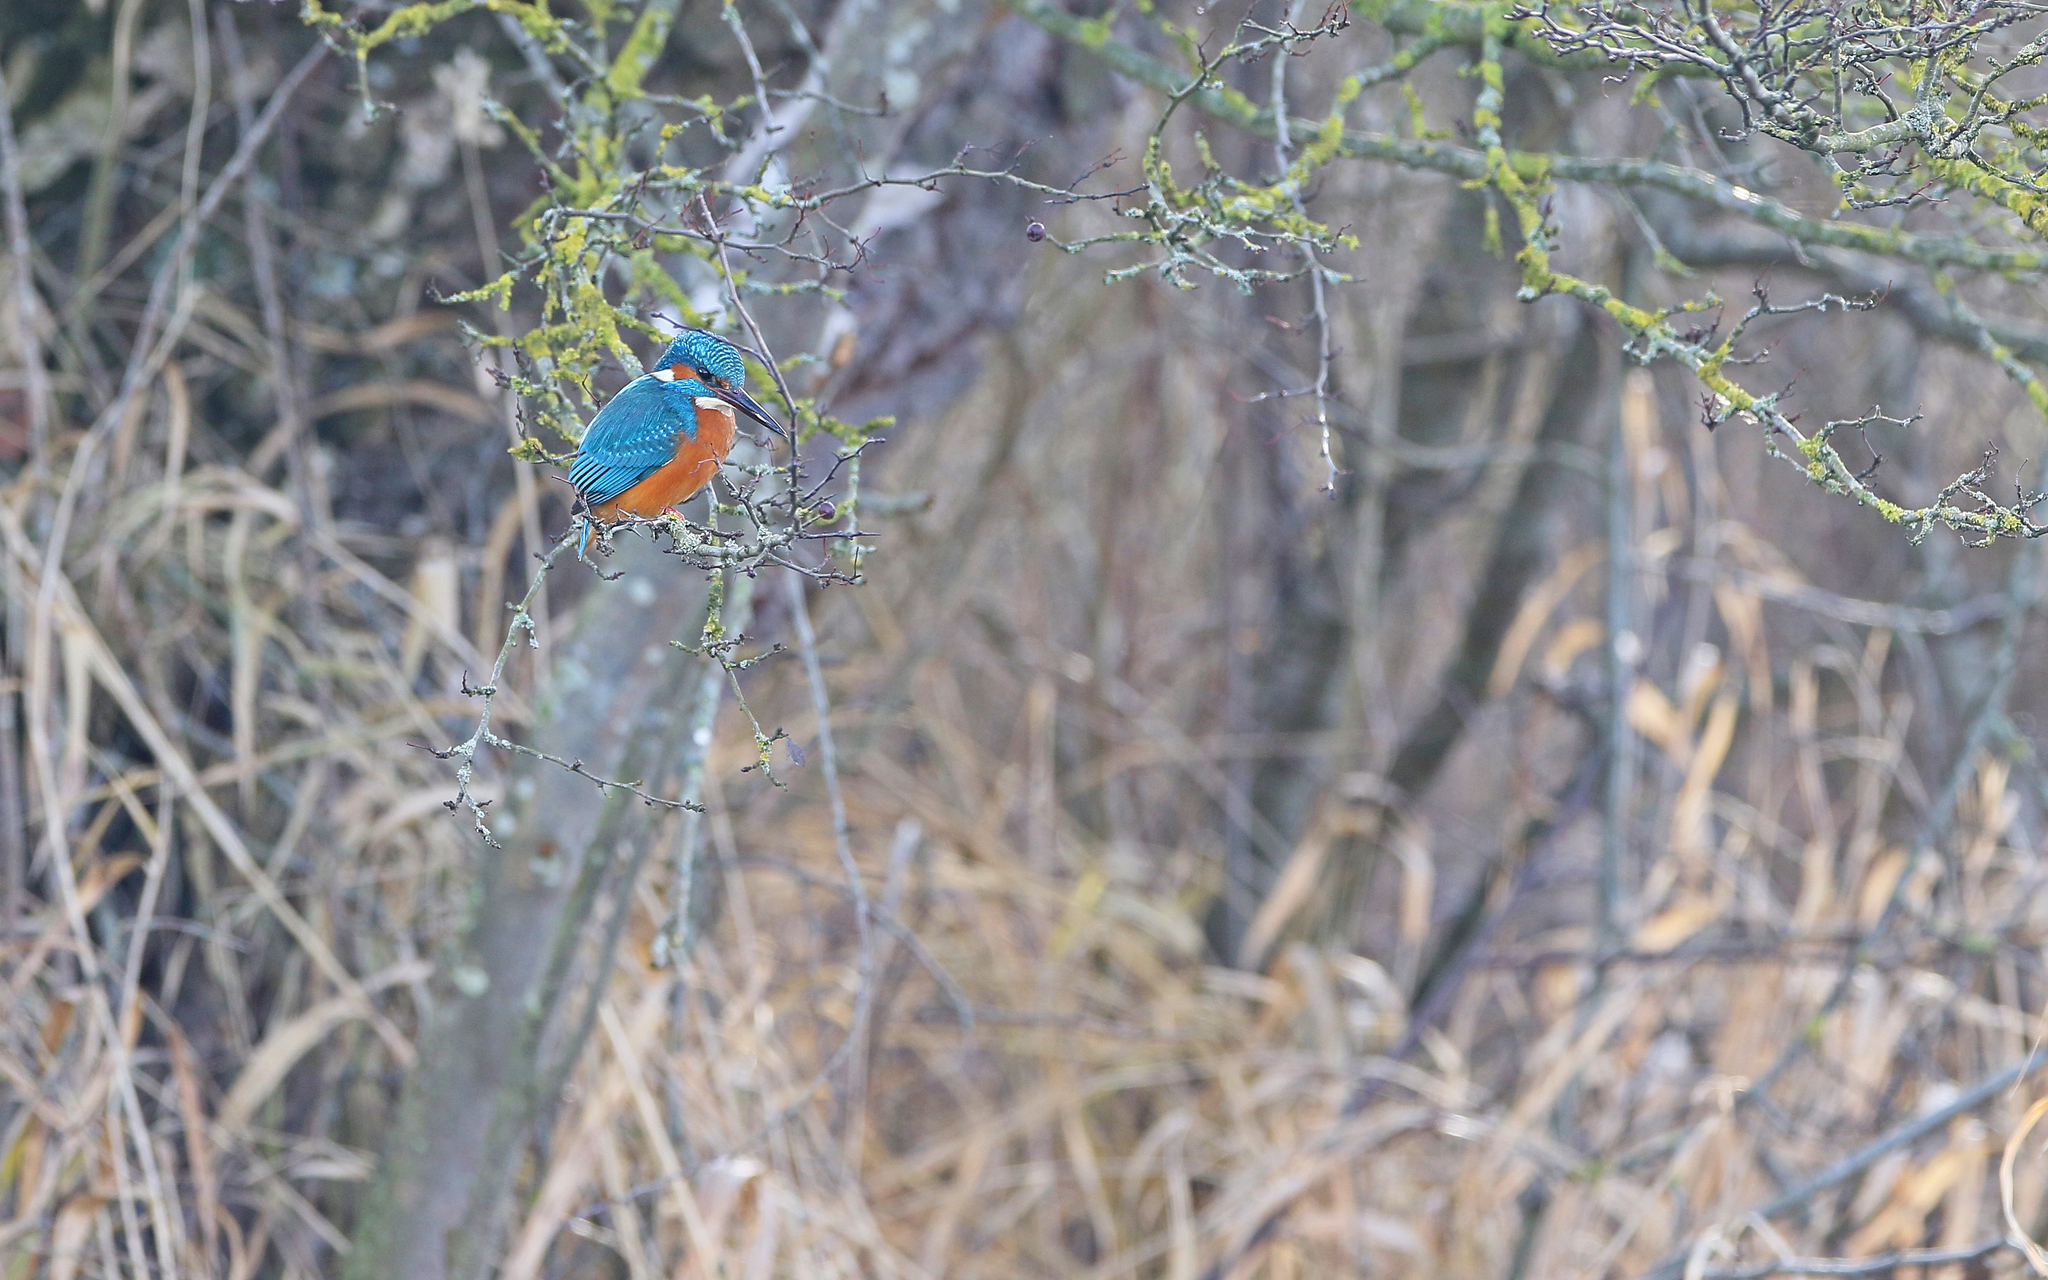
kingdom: Animalia
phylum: Chordata
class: Aves
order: Coraciiformes
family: Alcedinidae
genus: Alcedo
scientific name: Alcedo atthis
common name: Common kingfisher
